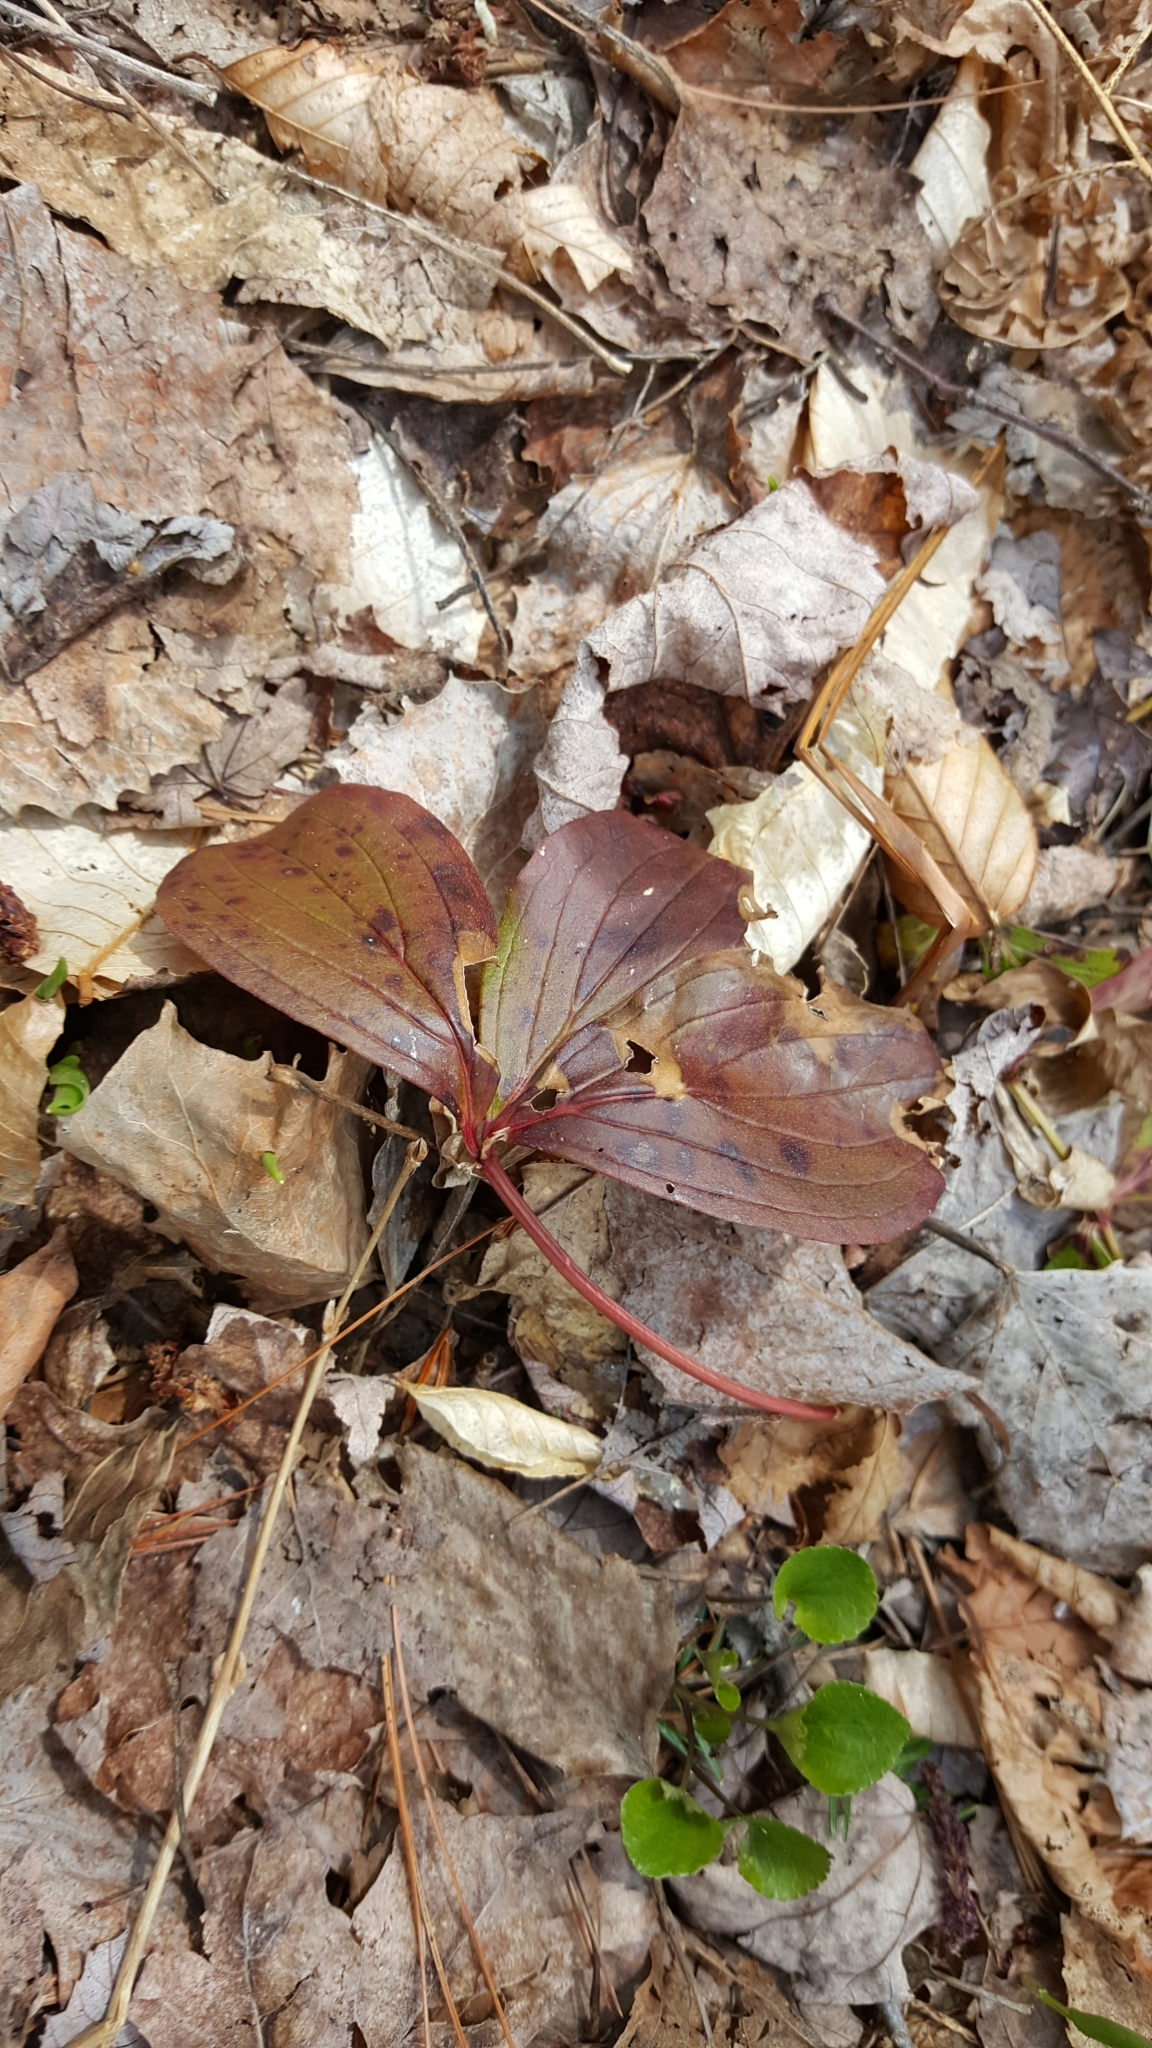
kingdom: Plantae
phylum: Tracheophyta
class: Magnoliopsida
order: Cornales
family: Cornaceae
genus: Cornus
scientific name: Cornus canadensis
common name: Creeping dogwood
